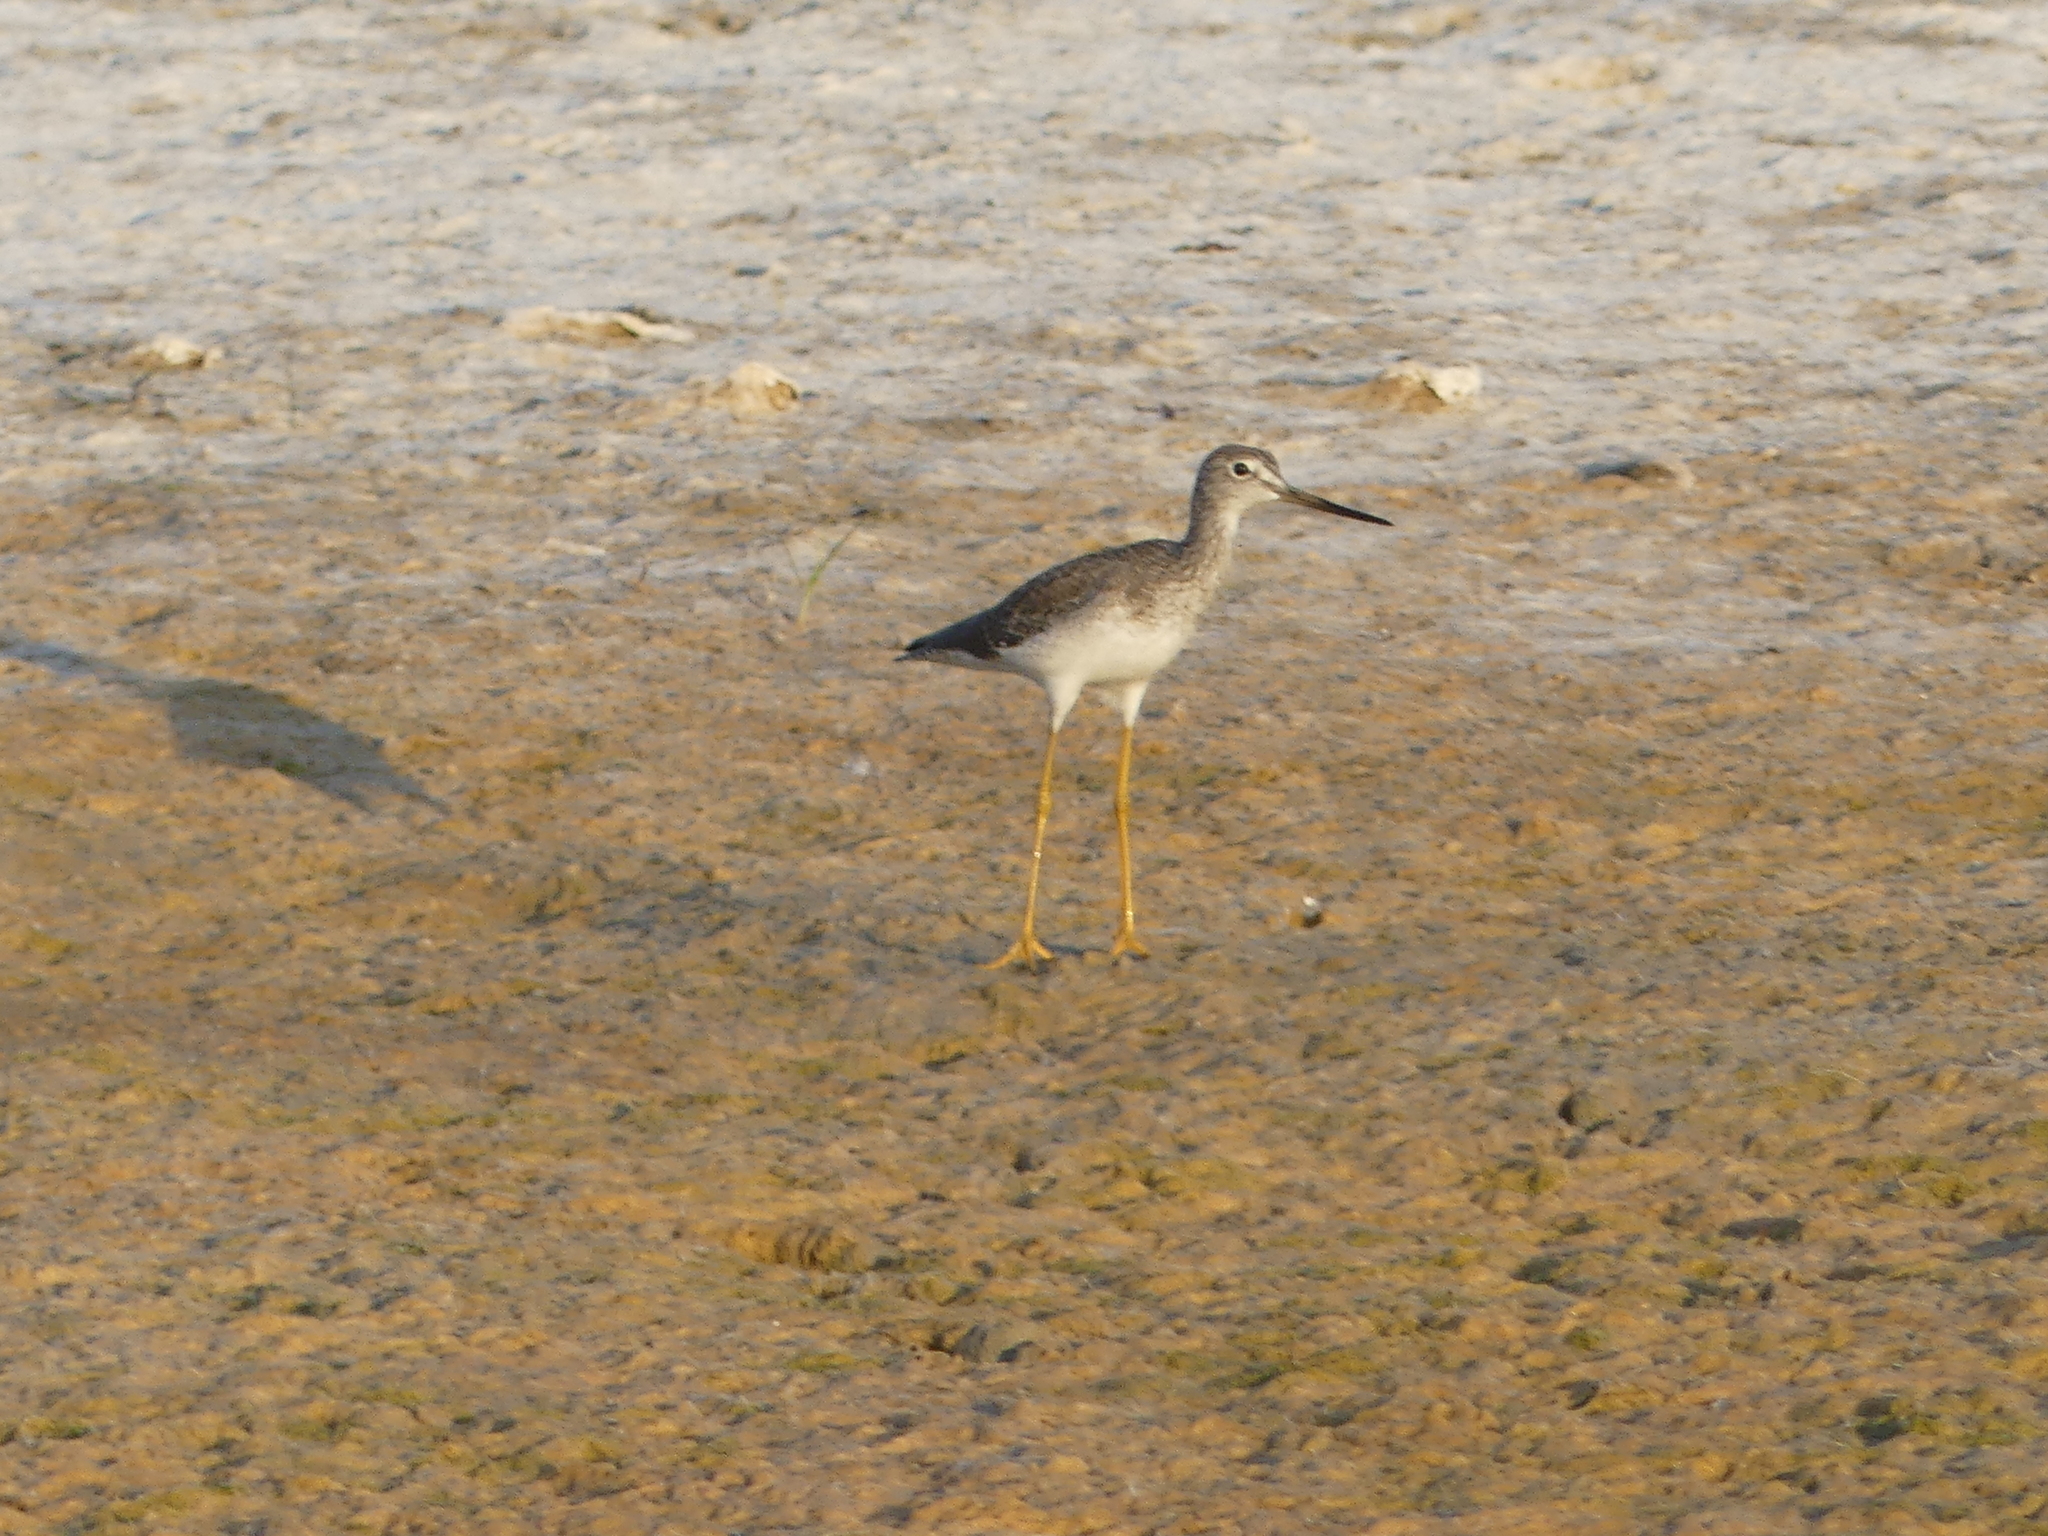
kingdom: Animalia
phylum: Chordata
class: Aves
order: Charadriiformes
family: Scolopacidae
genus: Tringa
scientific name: Tringa melanoleuca
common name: Greater yellowlegs
